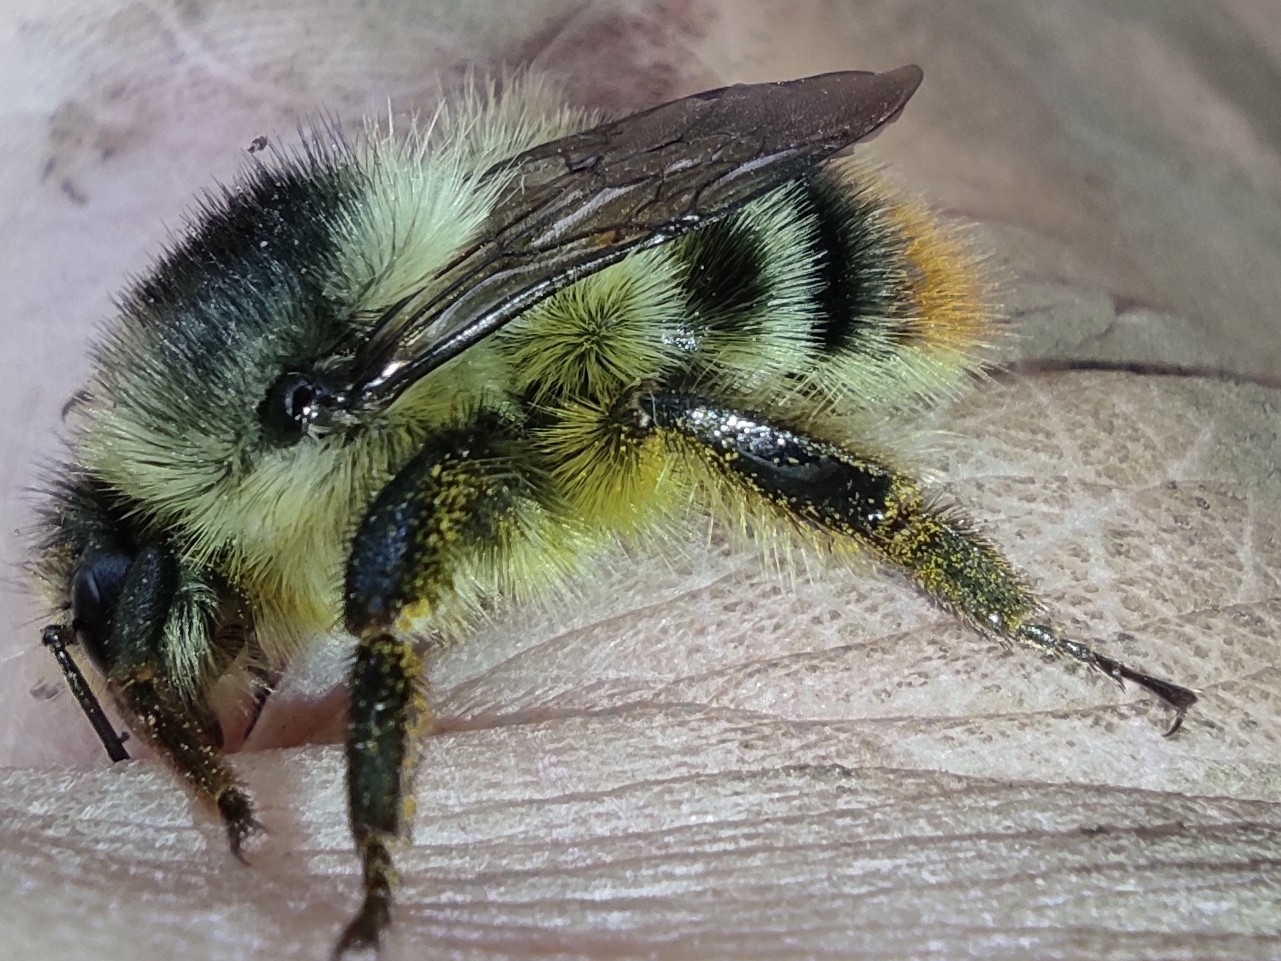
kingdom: Animalia
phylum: Arthropoda
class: Insecta
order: Hymenoptera
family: Apidae
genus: Bombus
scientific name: Bombus sylvarum
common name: Shrill carder bee
